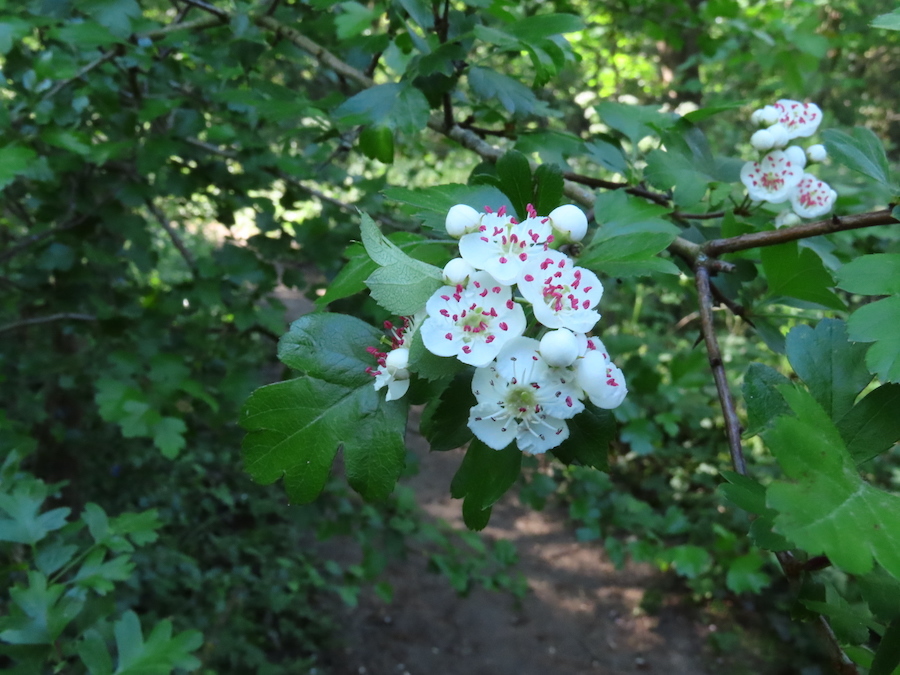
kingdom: Plantae
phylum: Tracheophyta
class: Magnoliopsida
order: Rosales
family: Rosaceae
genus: Crataegus
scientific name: Crataegus monogyna
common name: Hawthorn
